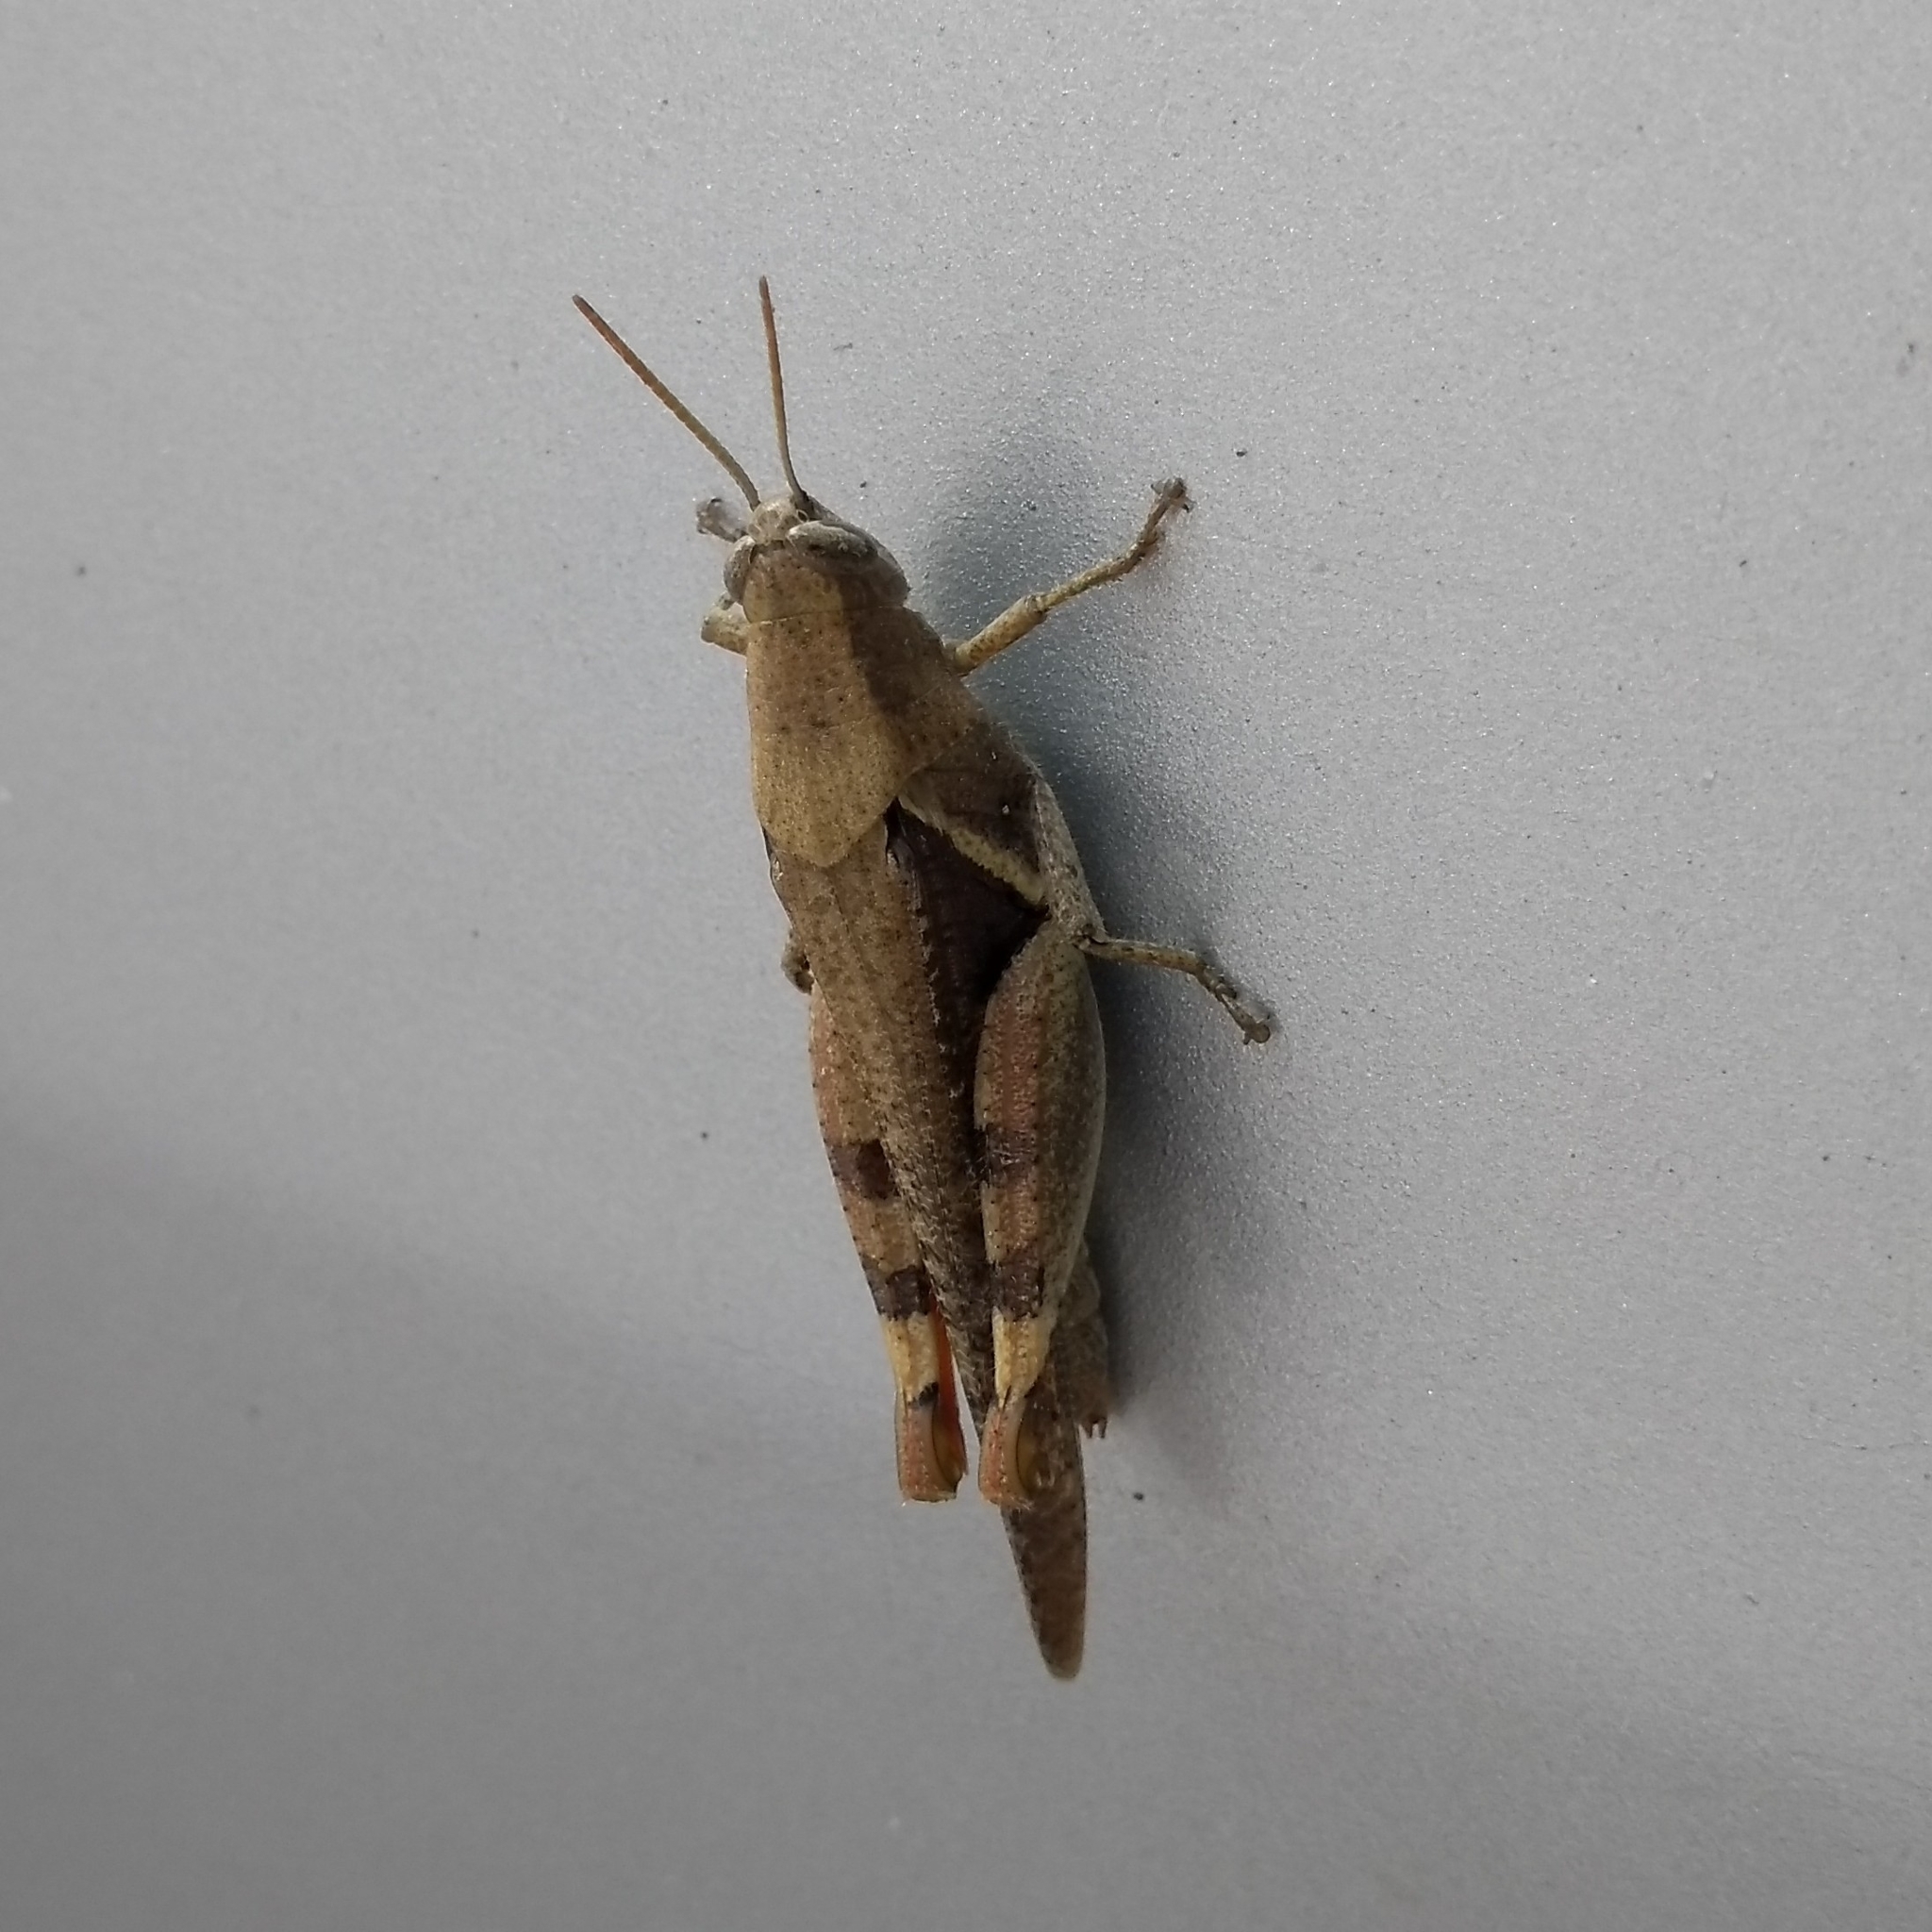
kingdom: Animalia
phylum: Arthropoda
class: Insecta
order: Orthoptera
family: Acrididae
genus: Diabolocatantops
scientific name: Diabolocatantops innotabilis
